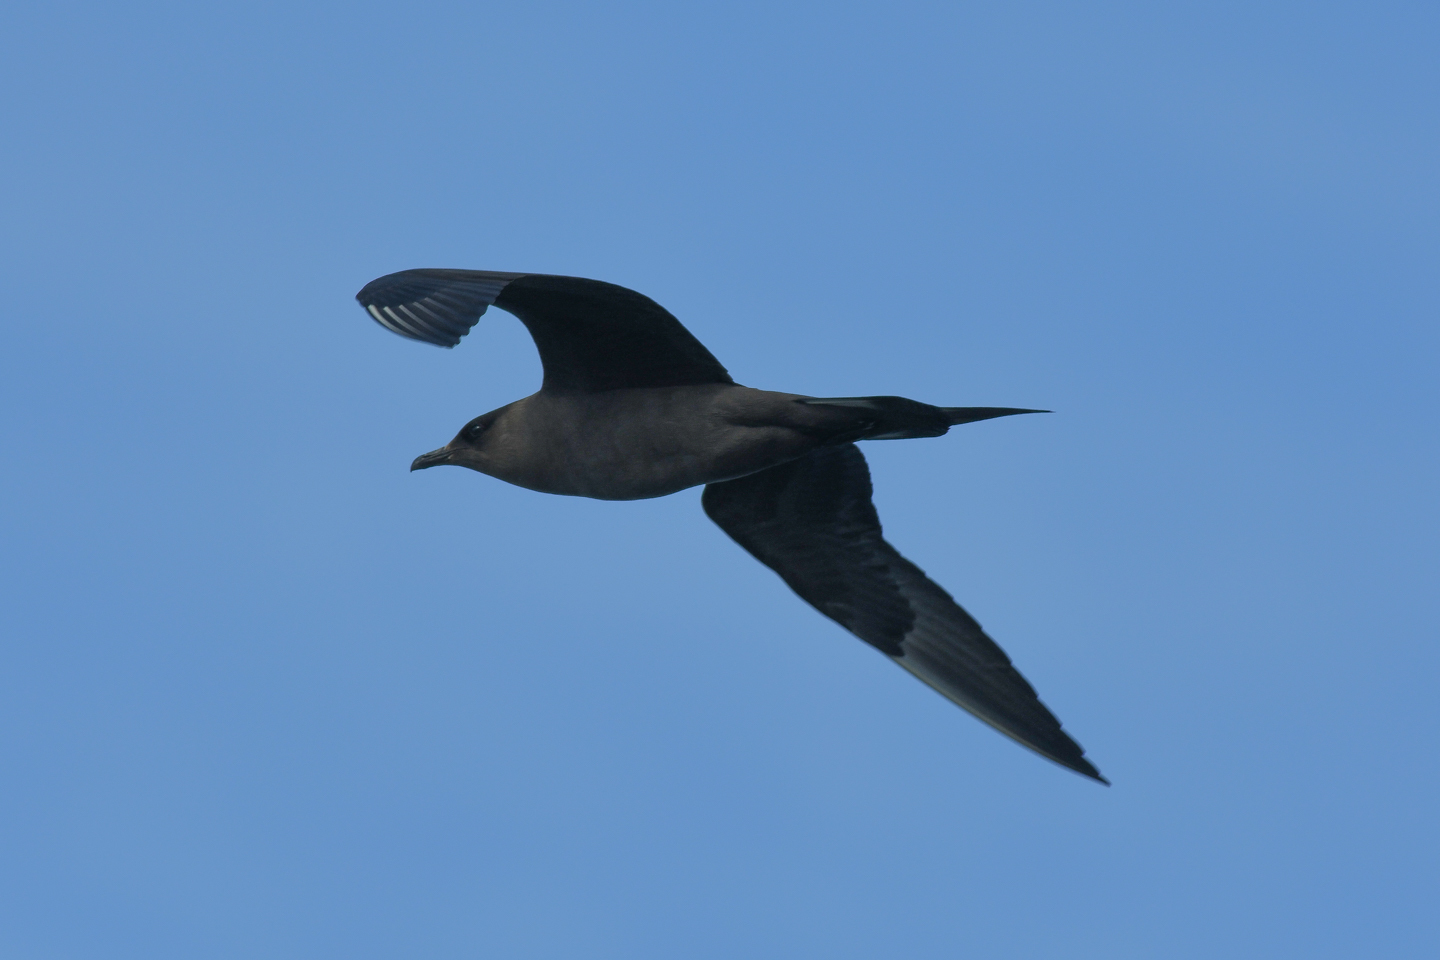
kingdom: Animalia
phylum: Chordata
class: Aves
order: Charadriiformes
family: Stercorariidae
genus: Stercorarius
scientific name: Stercorarius parasiticus
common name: Parasitic jaeger
